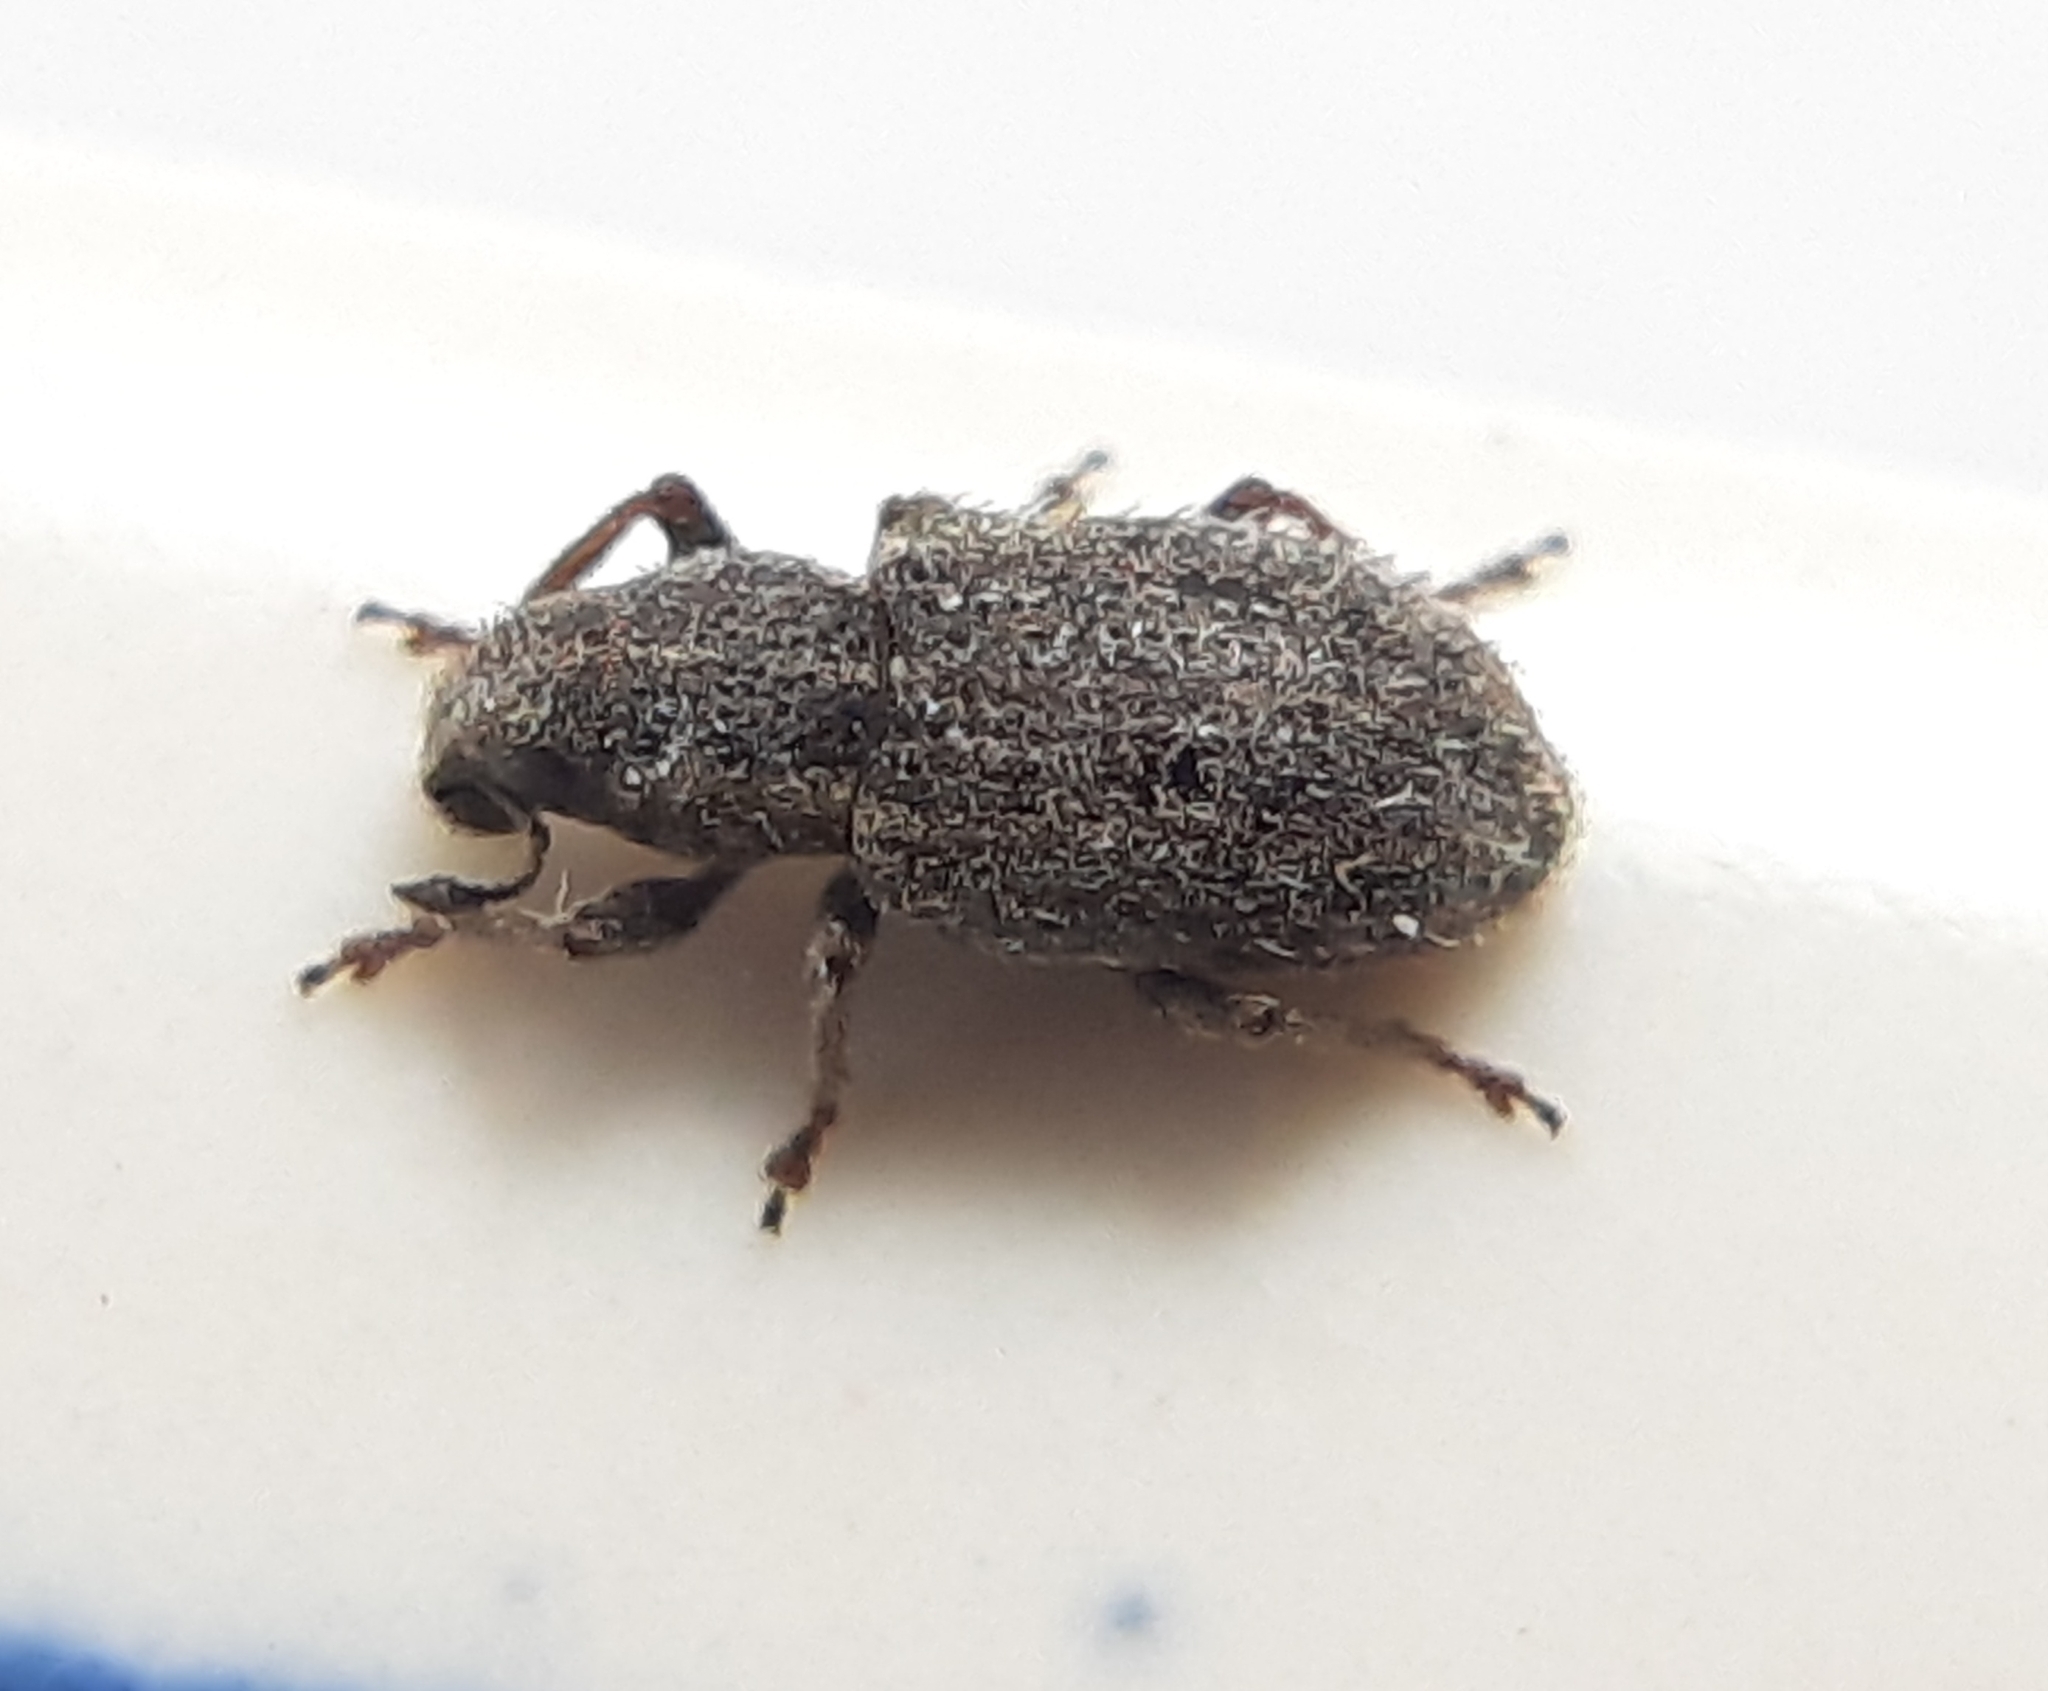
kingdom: Animalia
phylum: Arthropoda
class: Insecta
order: Coleoptera
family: Curculionidae
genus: Sitona
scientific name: Sitona hispidulus
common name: Clover weevil
